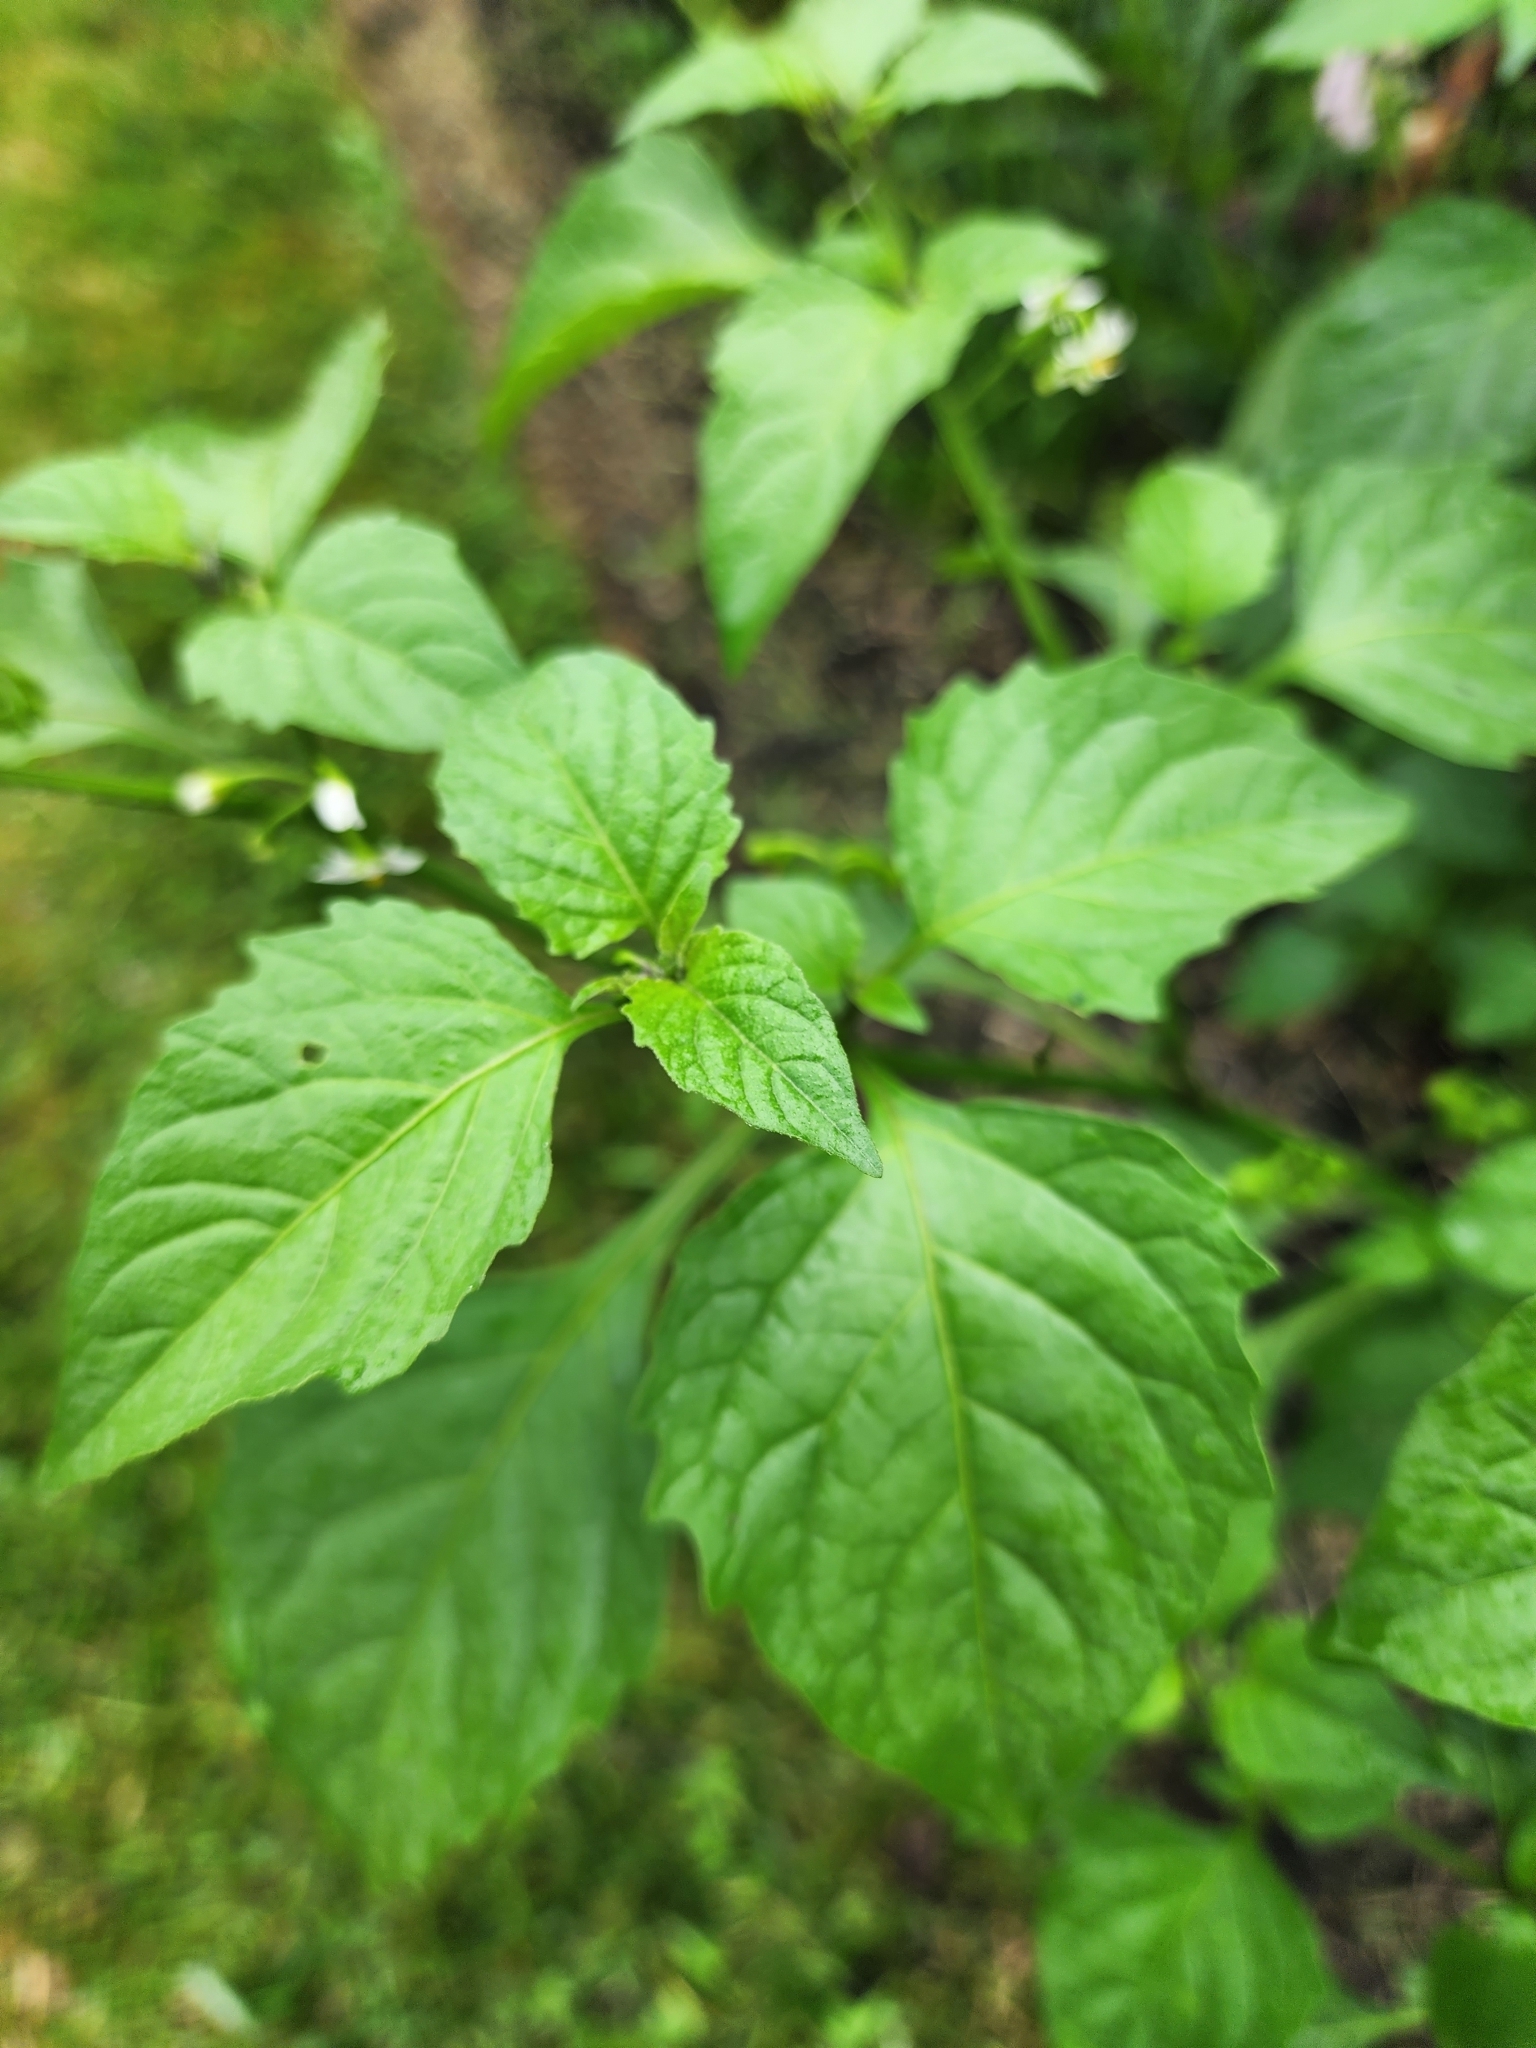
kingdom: Plantae
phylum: Tracheophyta
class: Magnoliopsida
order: Solanales
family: Solanaceae
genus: Solanum
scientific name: Solanum emulans
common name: Eastern black nightshade
